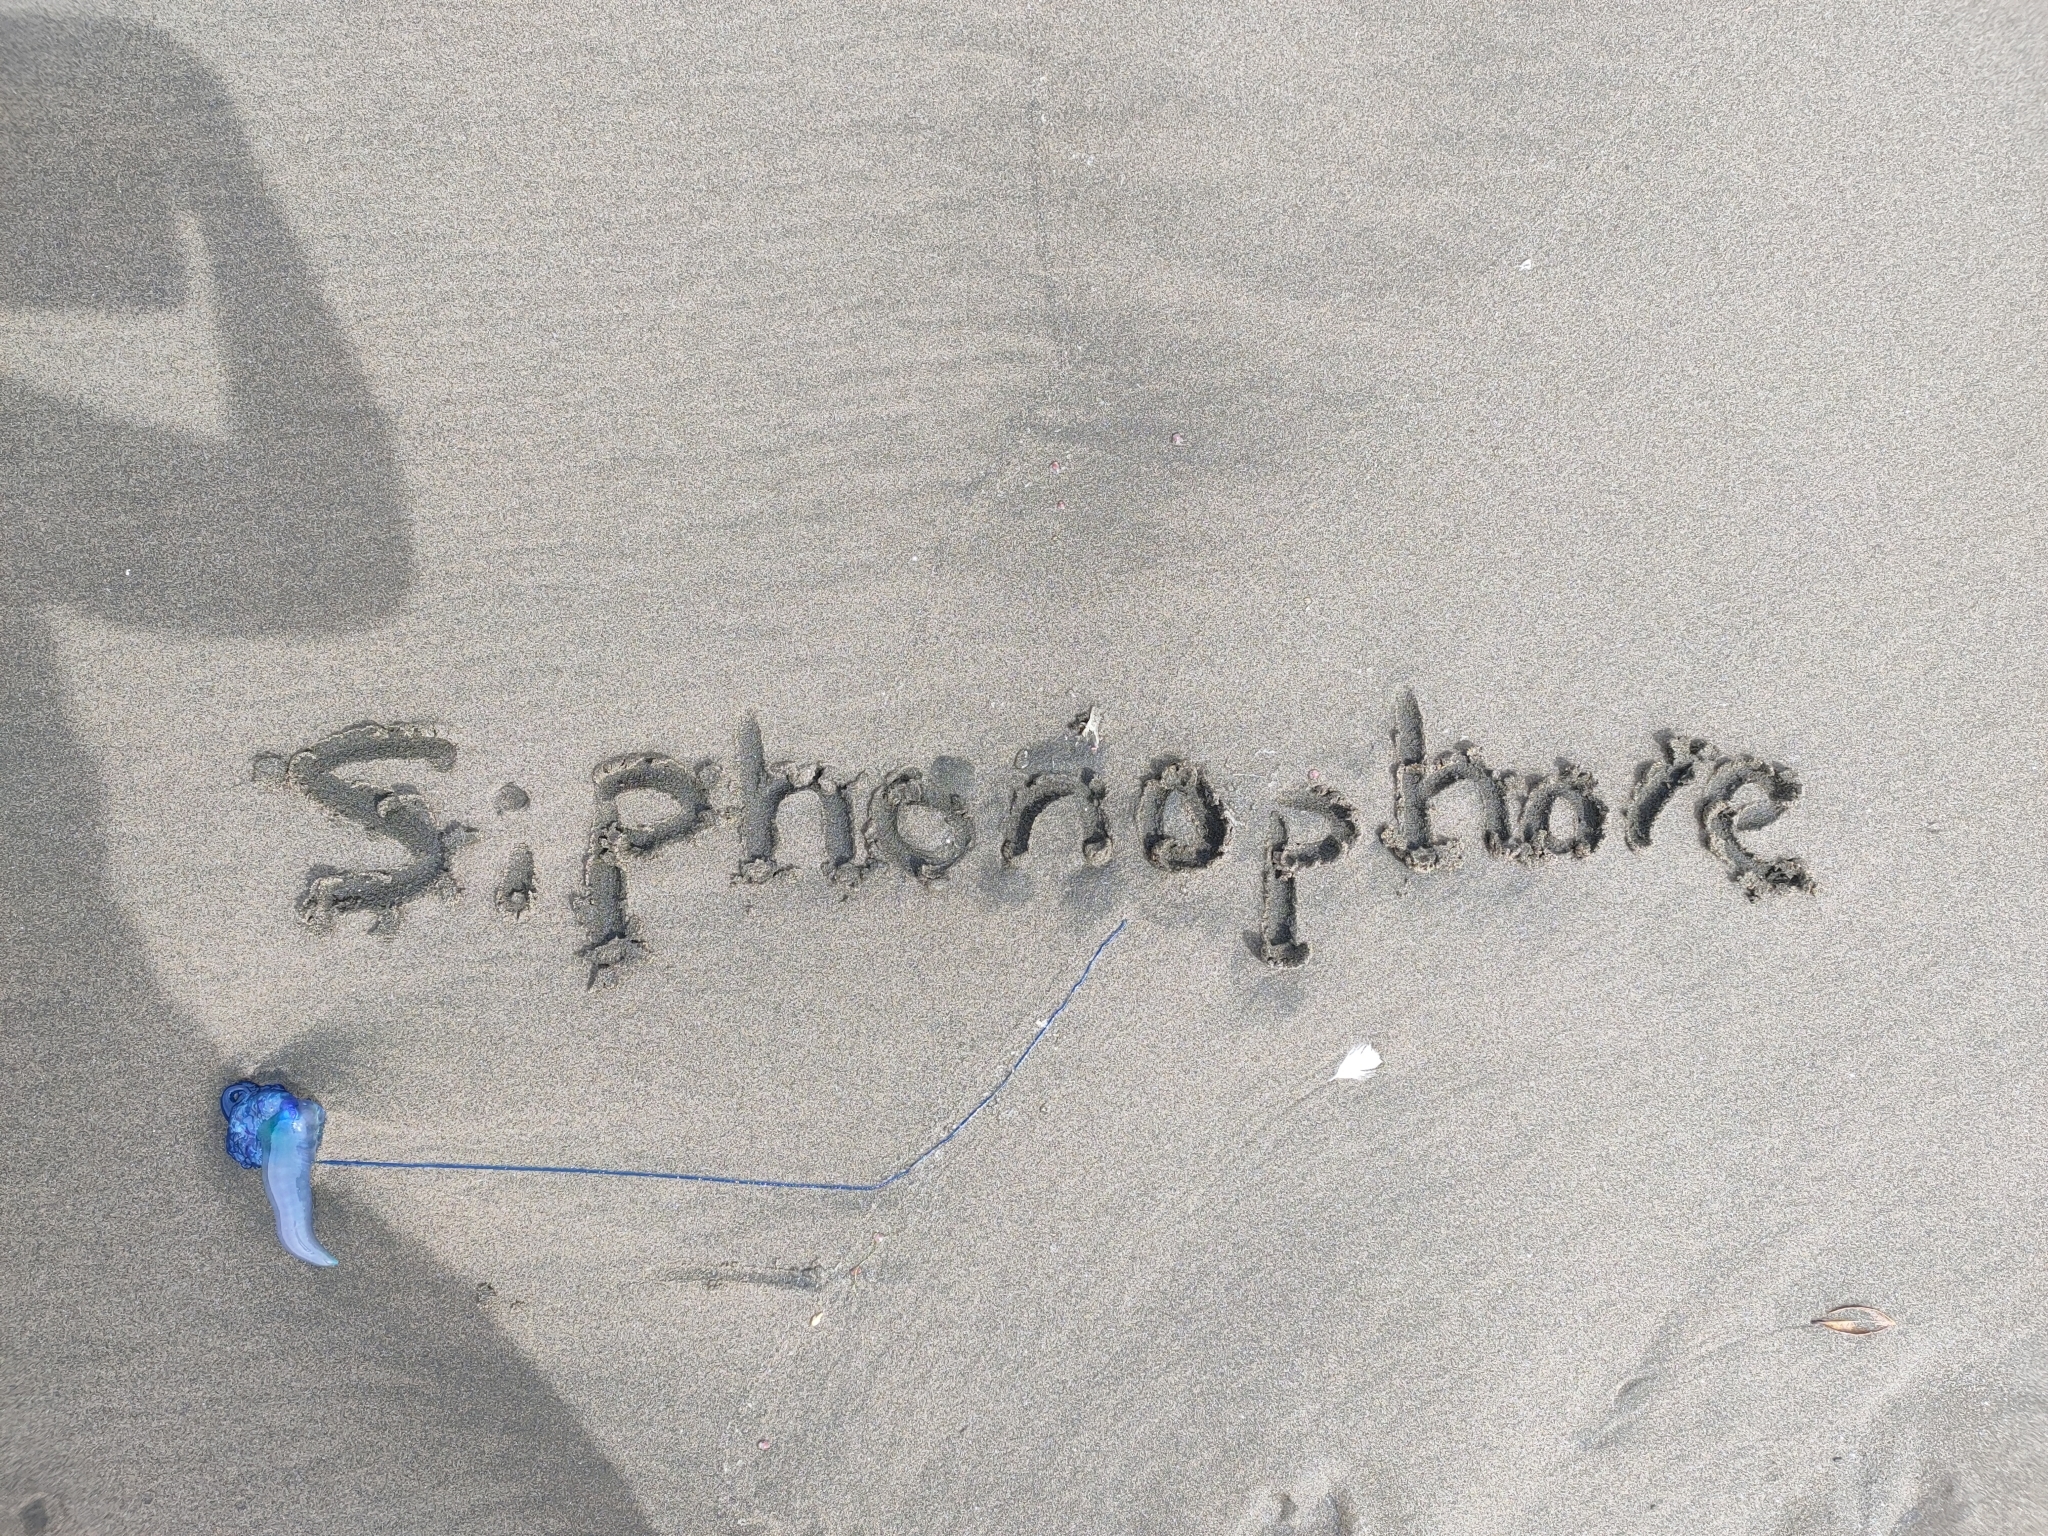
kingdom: Animalia
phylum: Cnidaria
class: Hydrozoa
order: Siphonophorae
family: Physaliidae
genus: Physalia
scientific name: Physalia physalis
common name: Portuguese man-of-war
